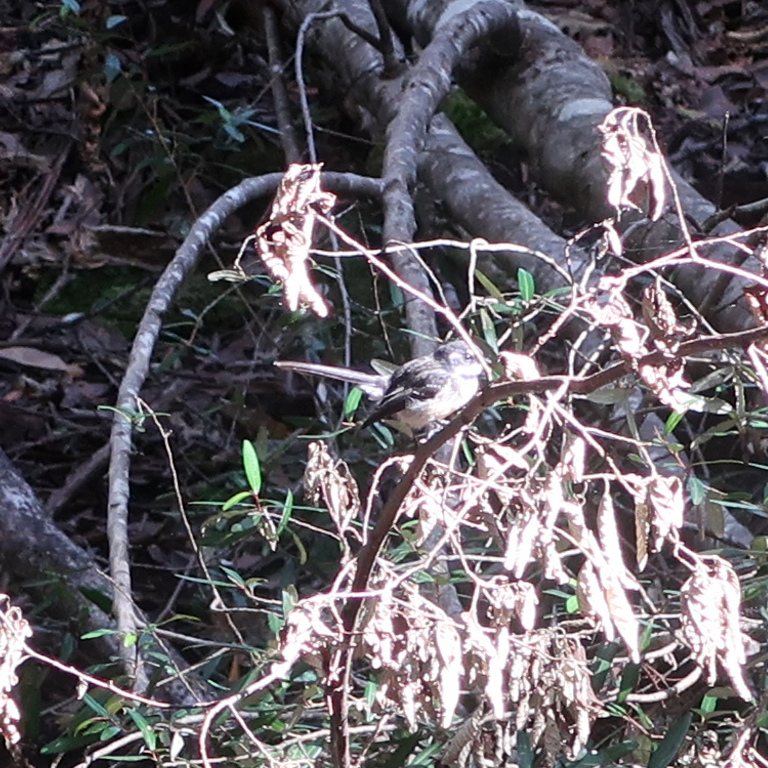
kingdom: Animalia
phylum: Chordata
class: Aves
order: Passeriformes
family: Rhipiduridae
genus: Rhipidura
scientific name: Rhipidura albiscapa
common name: Grey fantail
